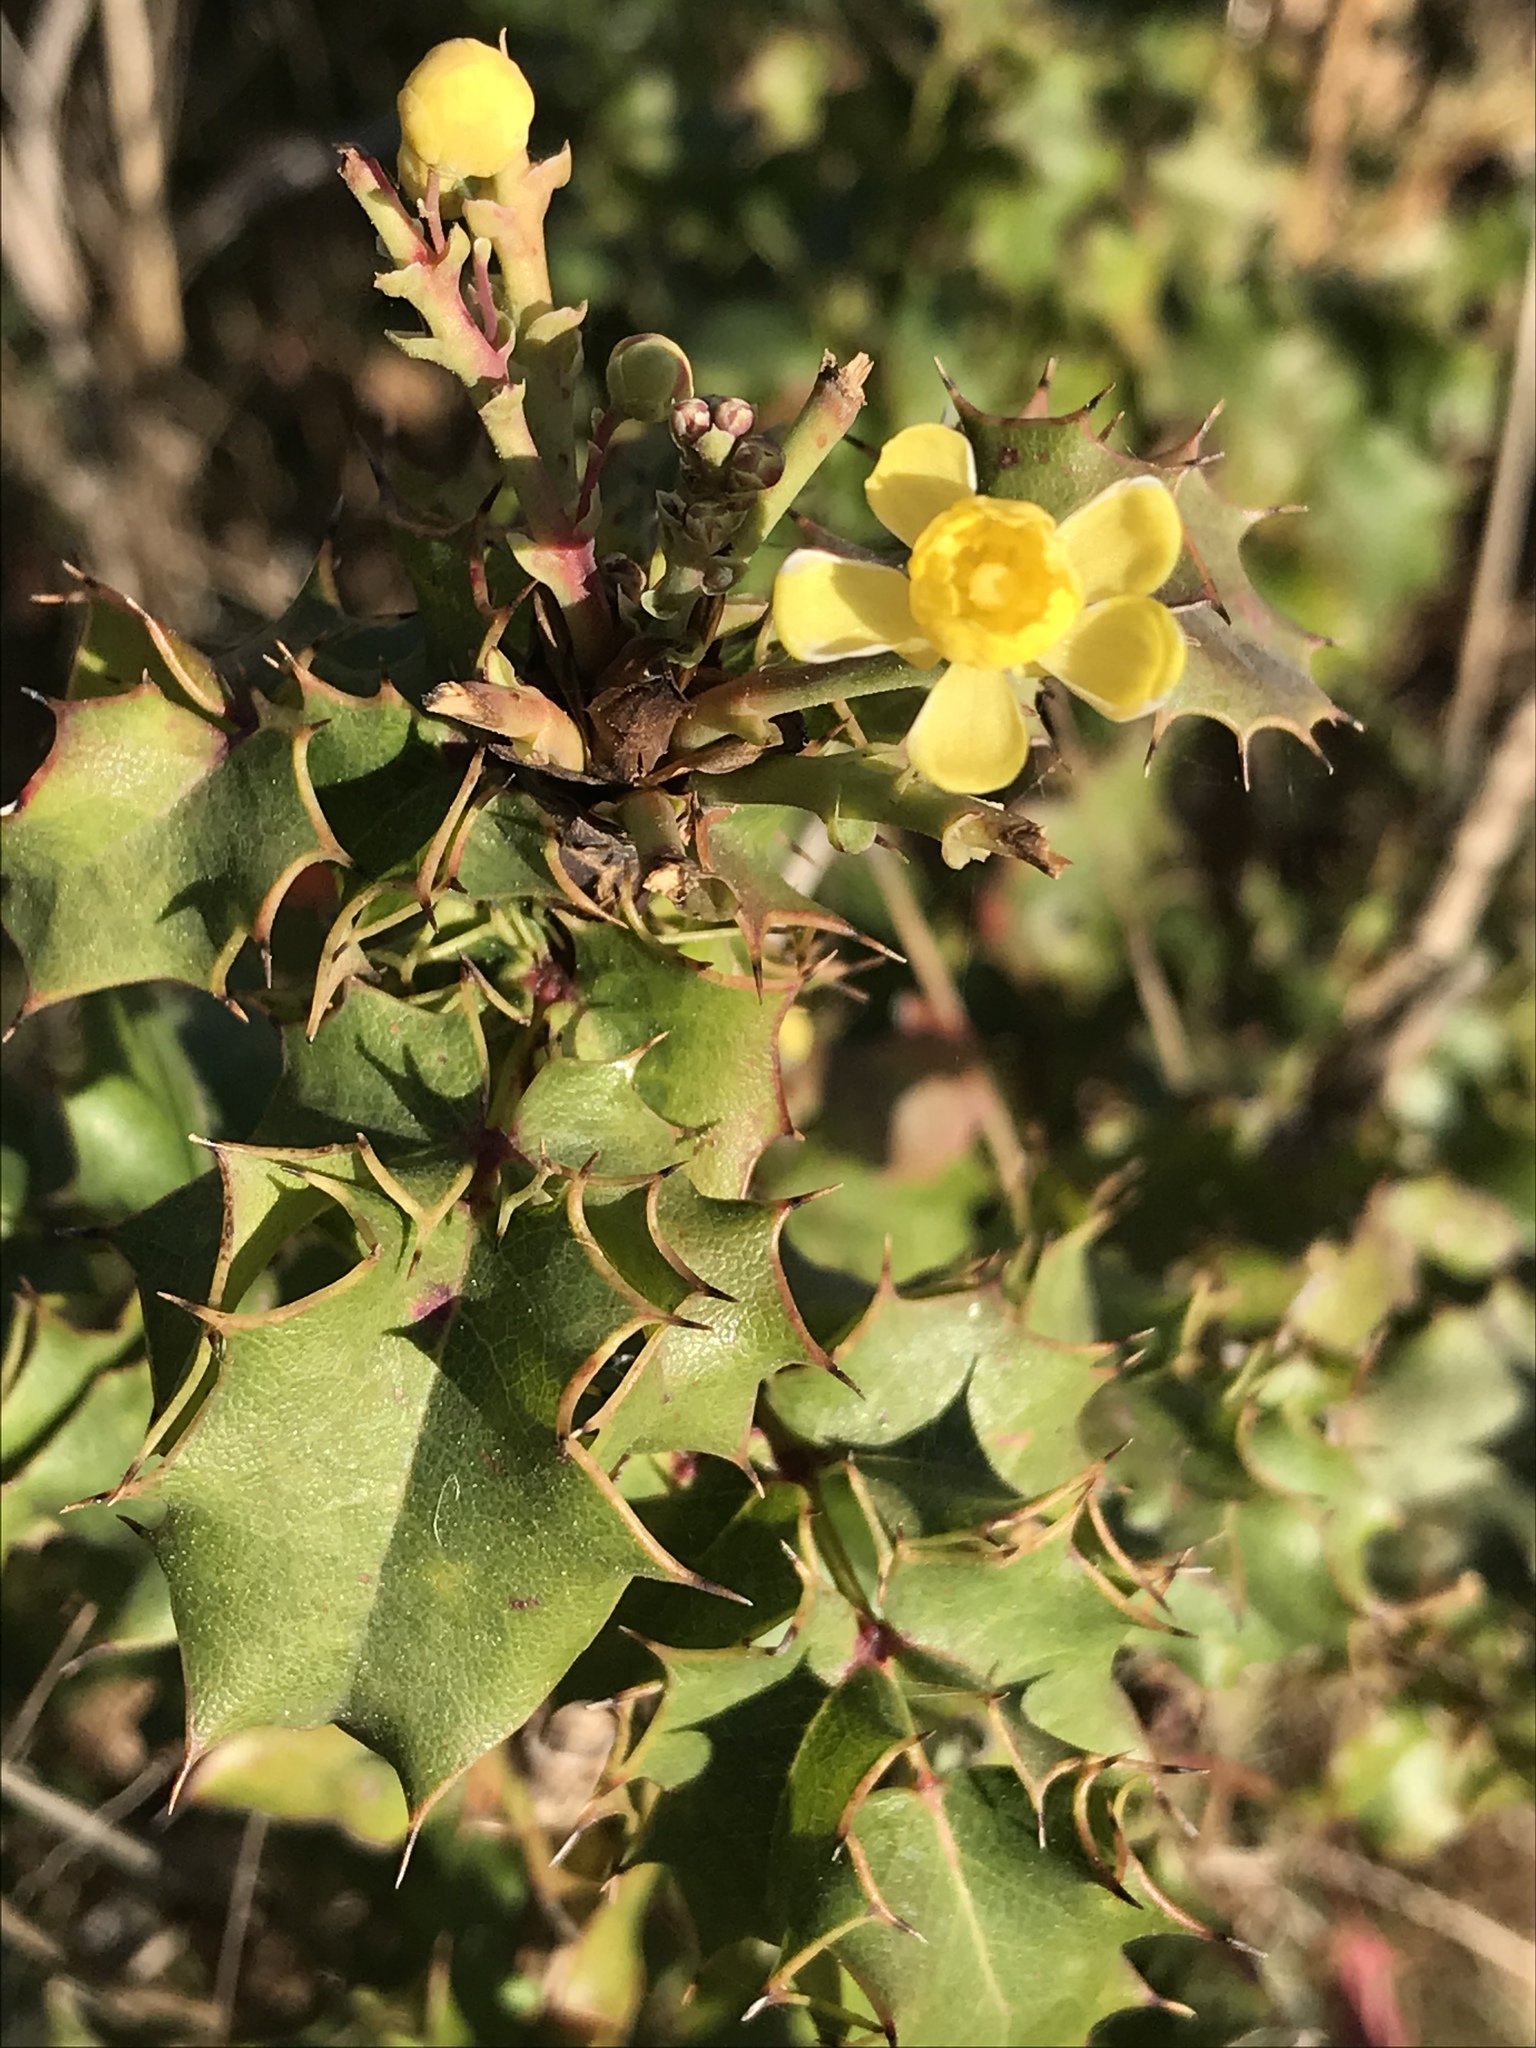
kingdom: Plantae
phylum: Tracheophyta
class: Magnoliopsida
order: Ranunculales
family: Berberidaceae
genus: Mahonia
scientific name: Mahonia
